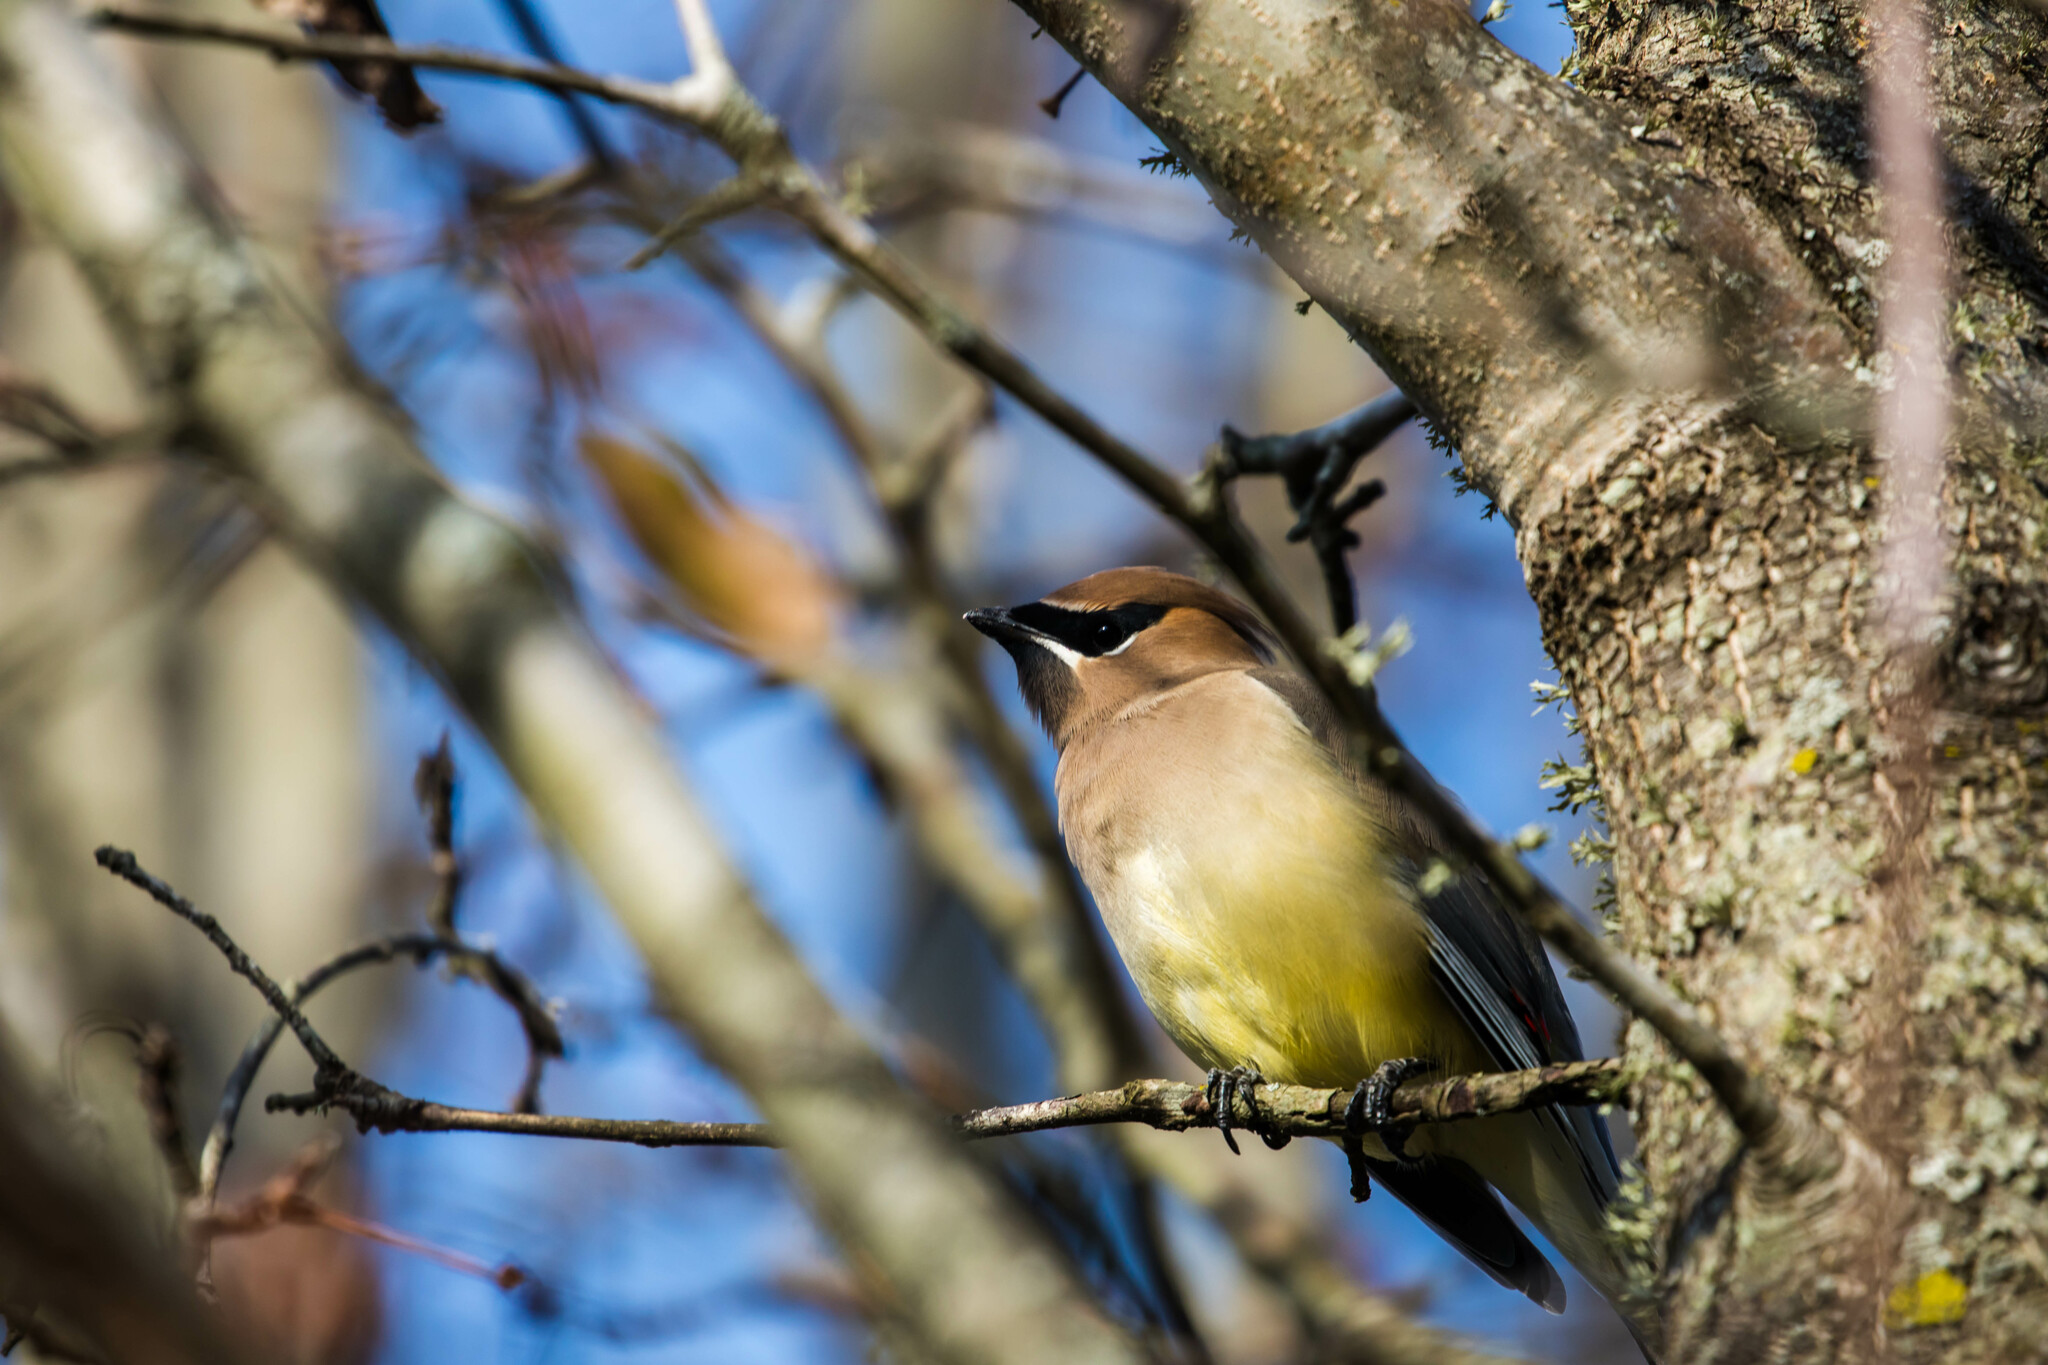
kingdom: Animalia
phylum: Chordata
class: Aves
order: Passeriformes
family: Bombycillidae
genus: Bombycilla
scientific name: Bombycilla cedrorum
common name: Cedar waxwing
